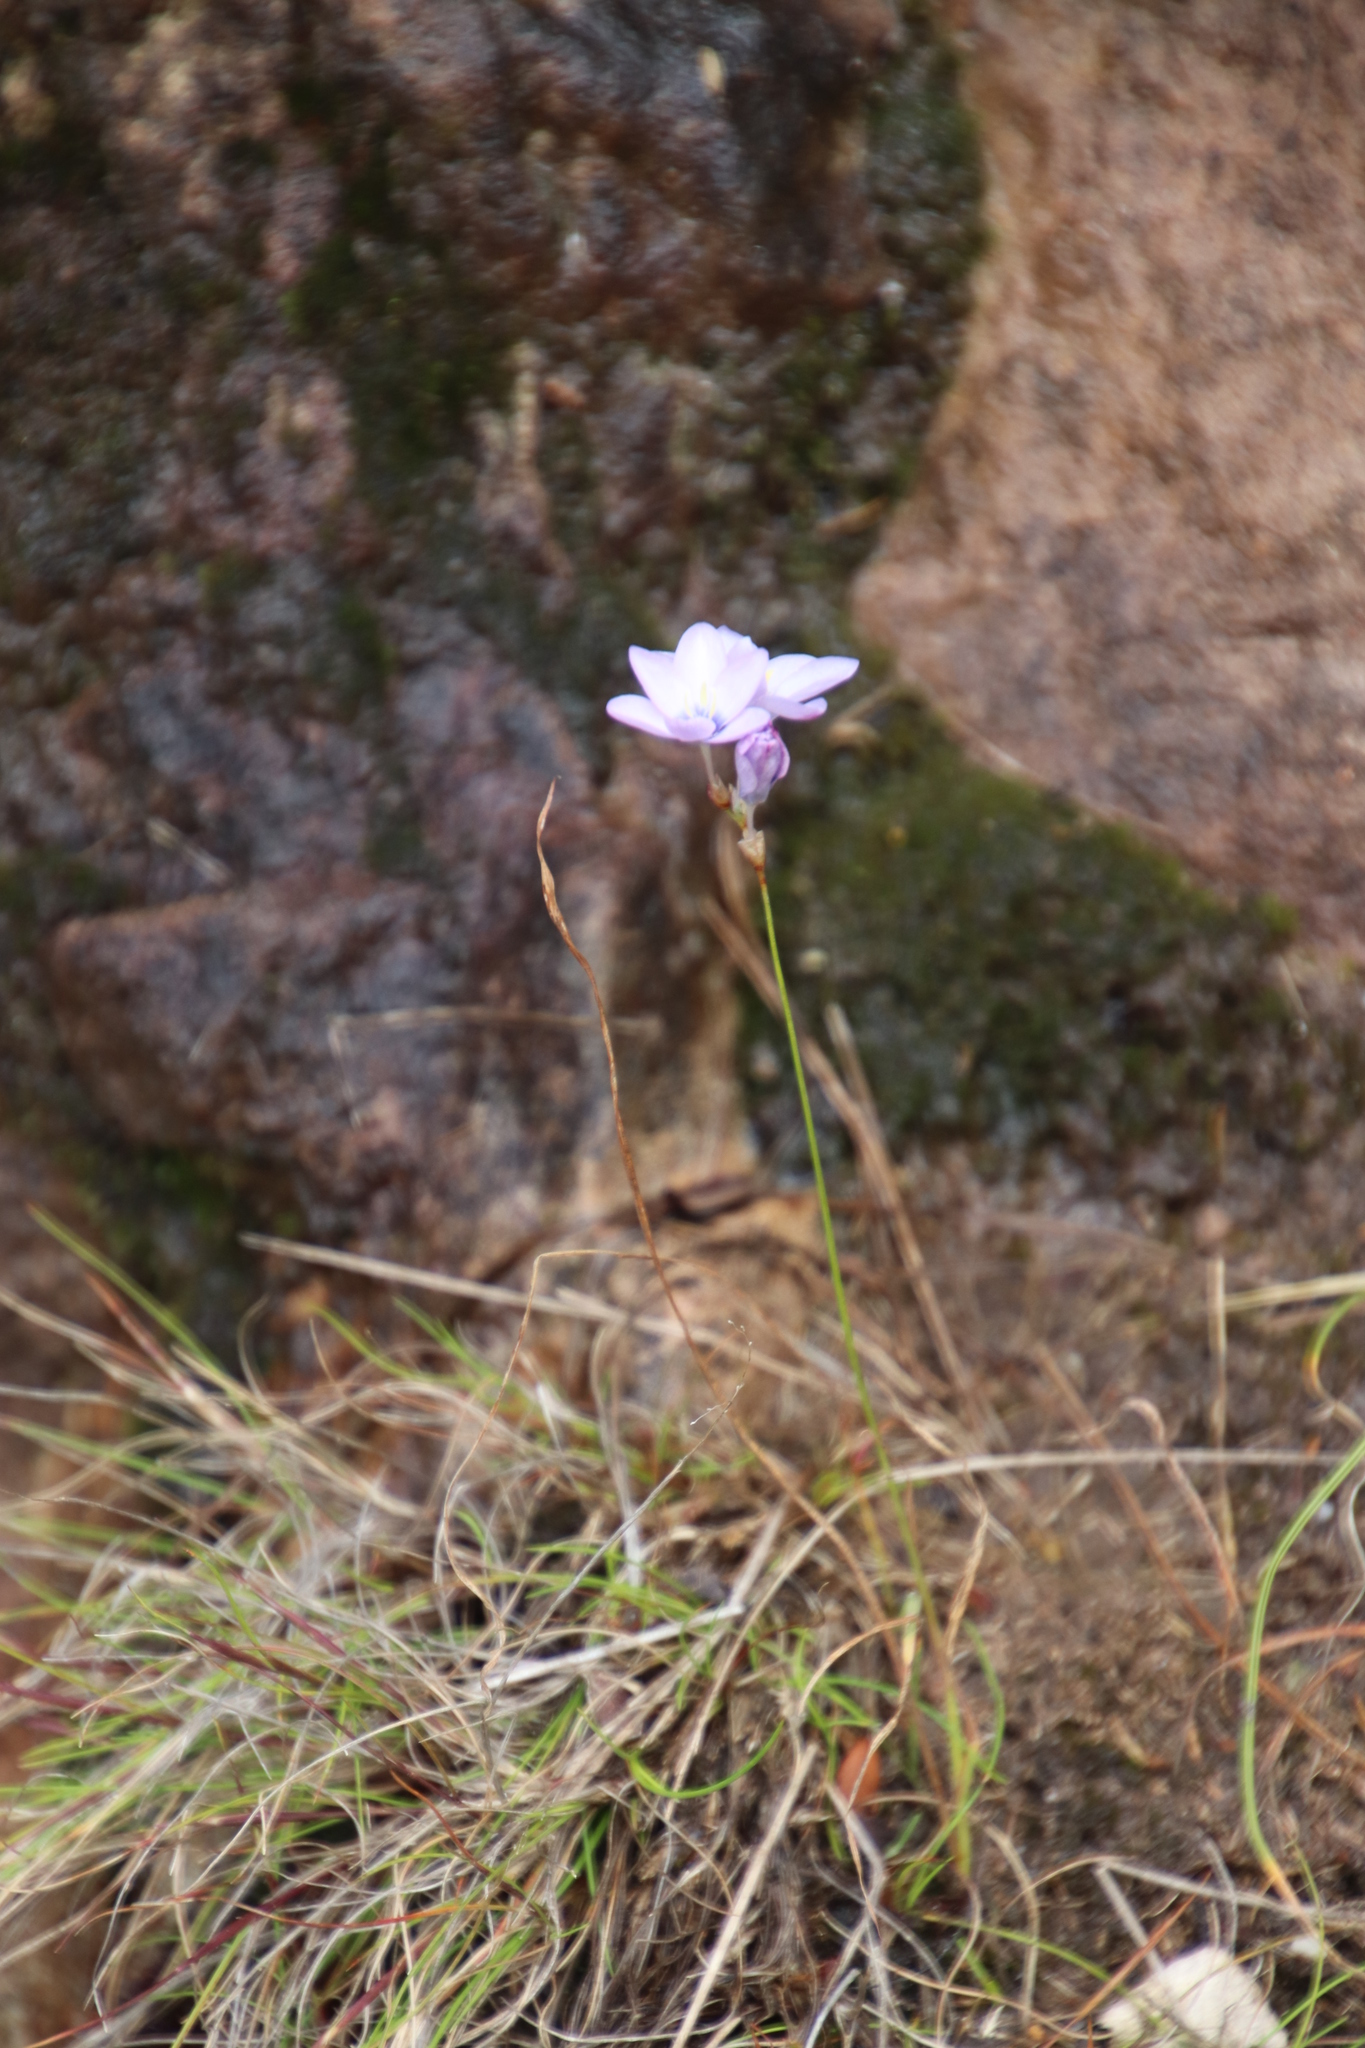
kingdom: Plantae
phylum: Tracheophyta
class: Liliopsida
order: Asparagales
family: Iridaceae
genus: Ixia
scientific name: Ixia polystachya
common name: White-and-yellow-flower cornlily
